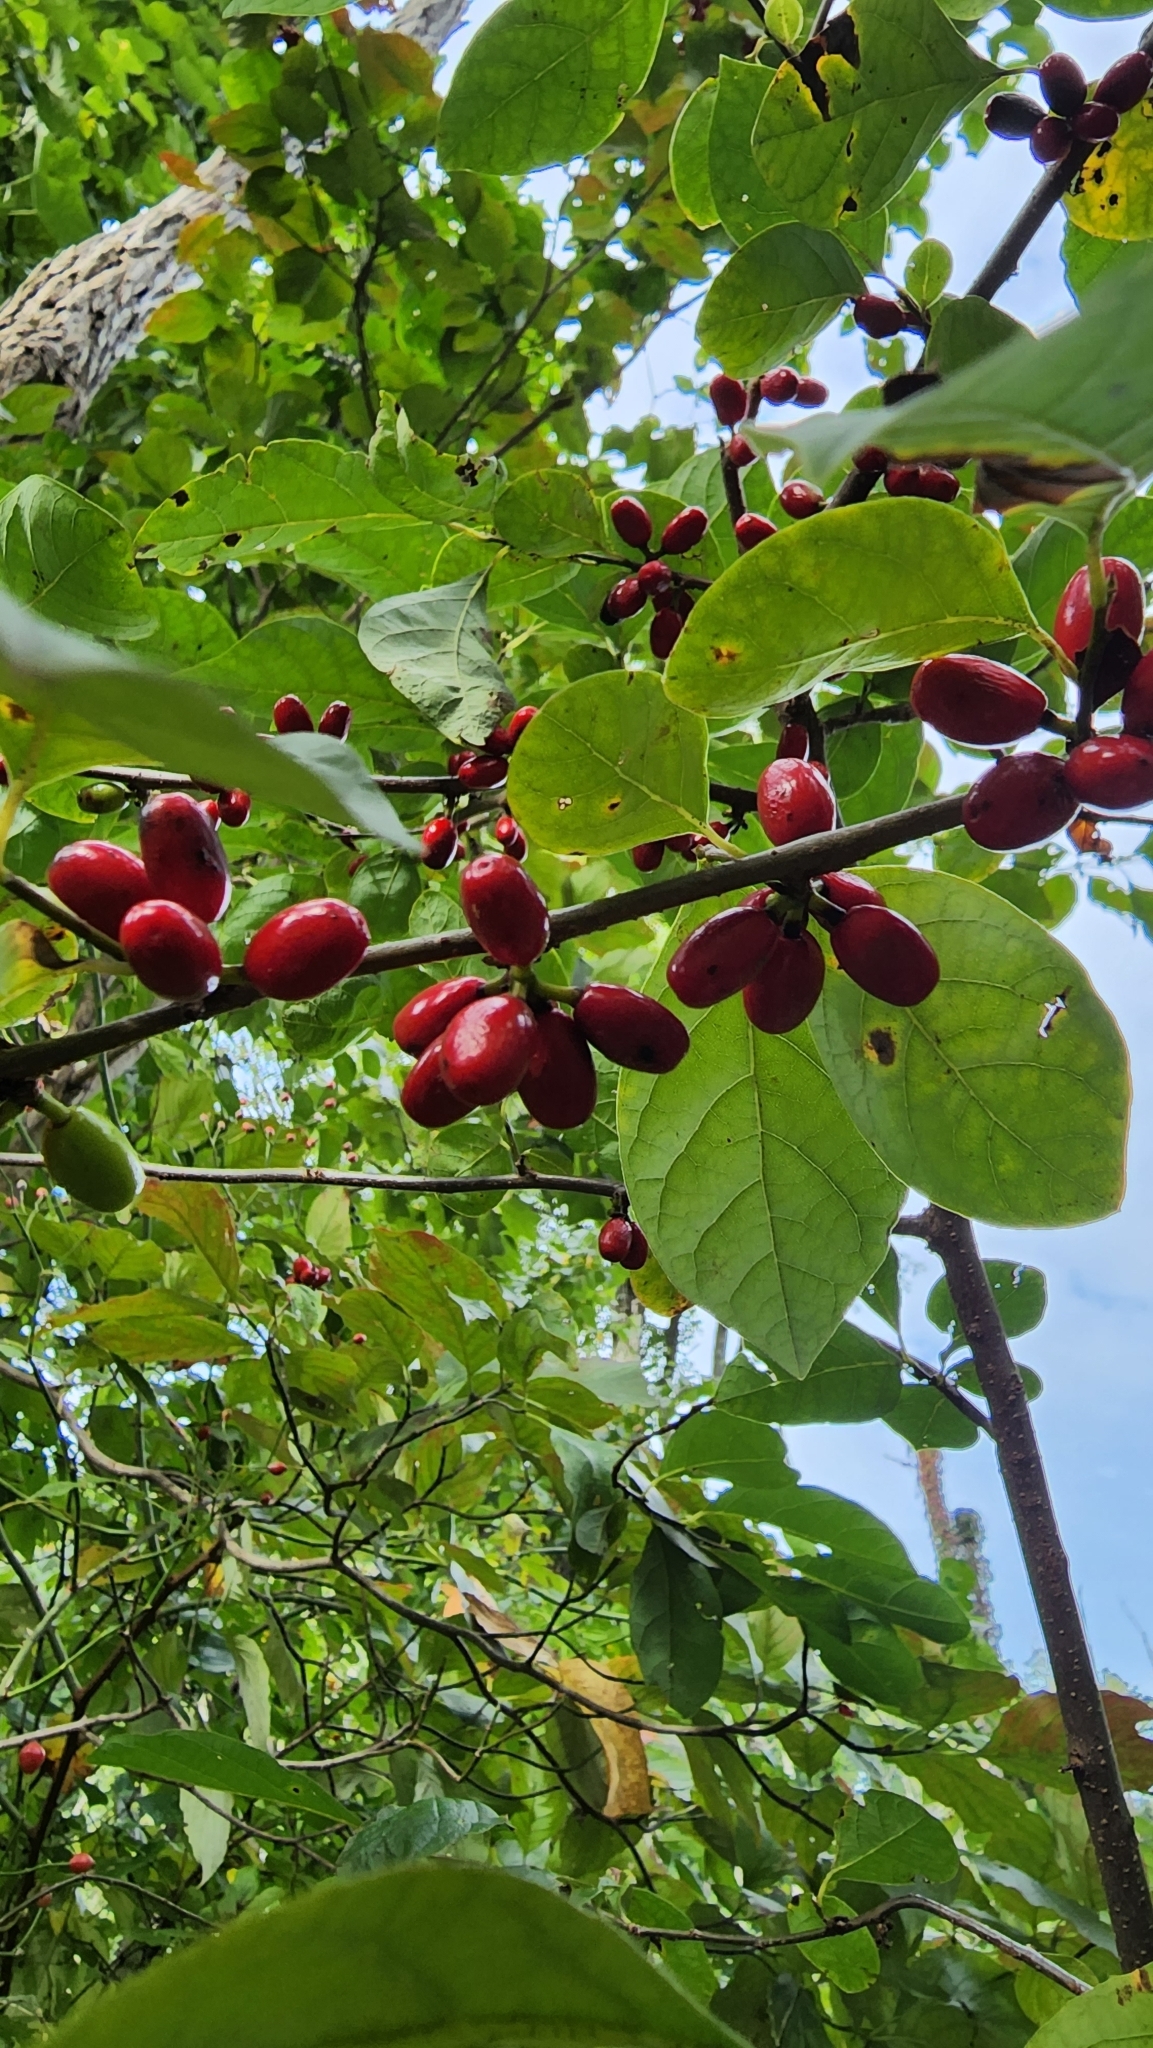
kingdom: Plantae
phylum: Tracheophyta
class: Magnoliopsida
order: Laurales
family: Lauraceae
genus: Lindera
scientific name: Lindera benzoin
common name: Spicebush
